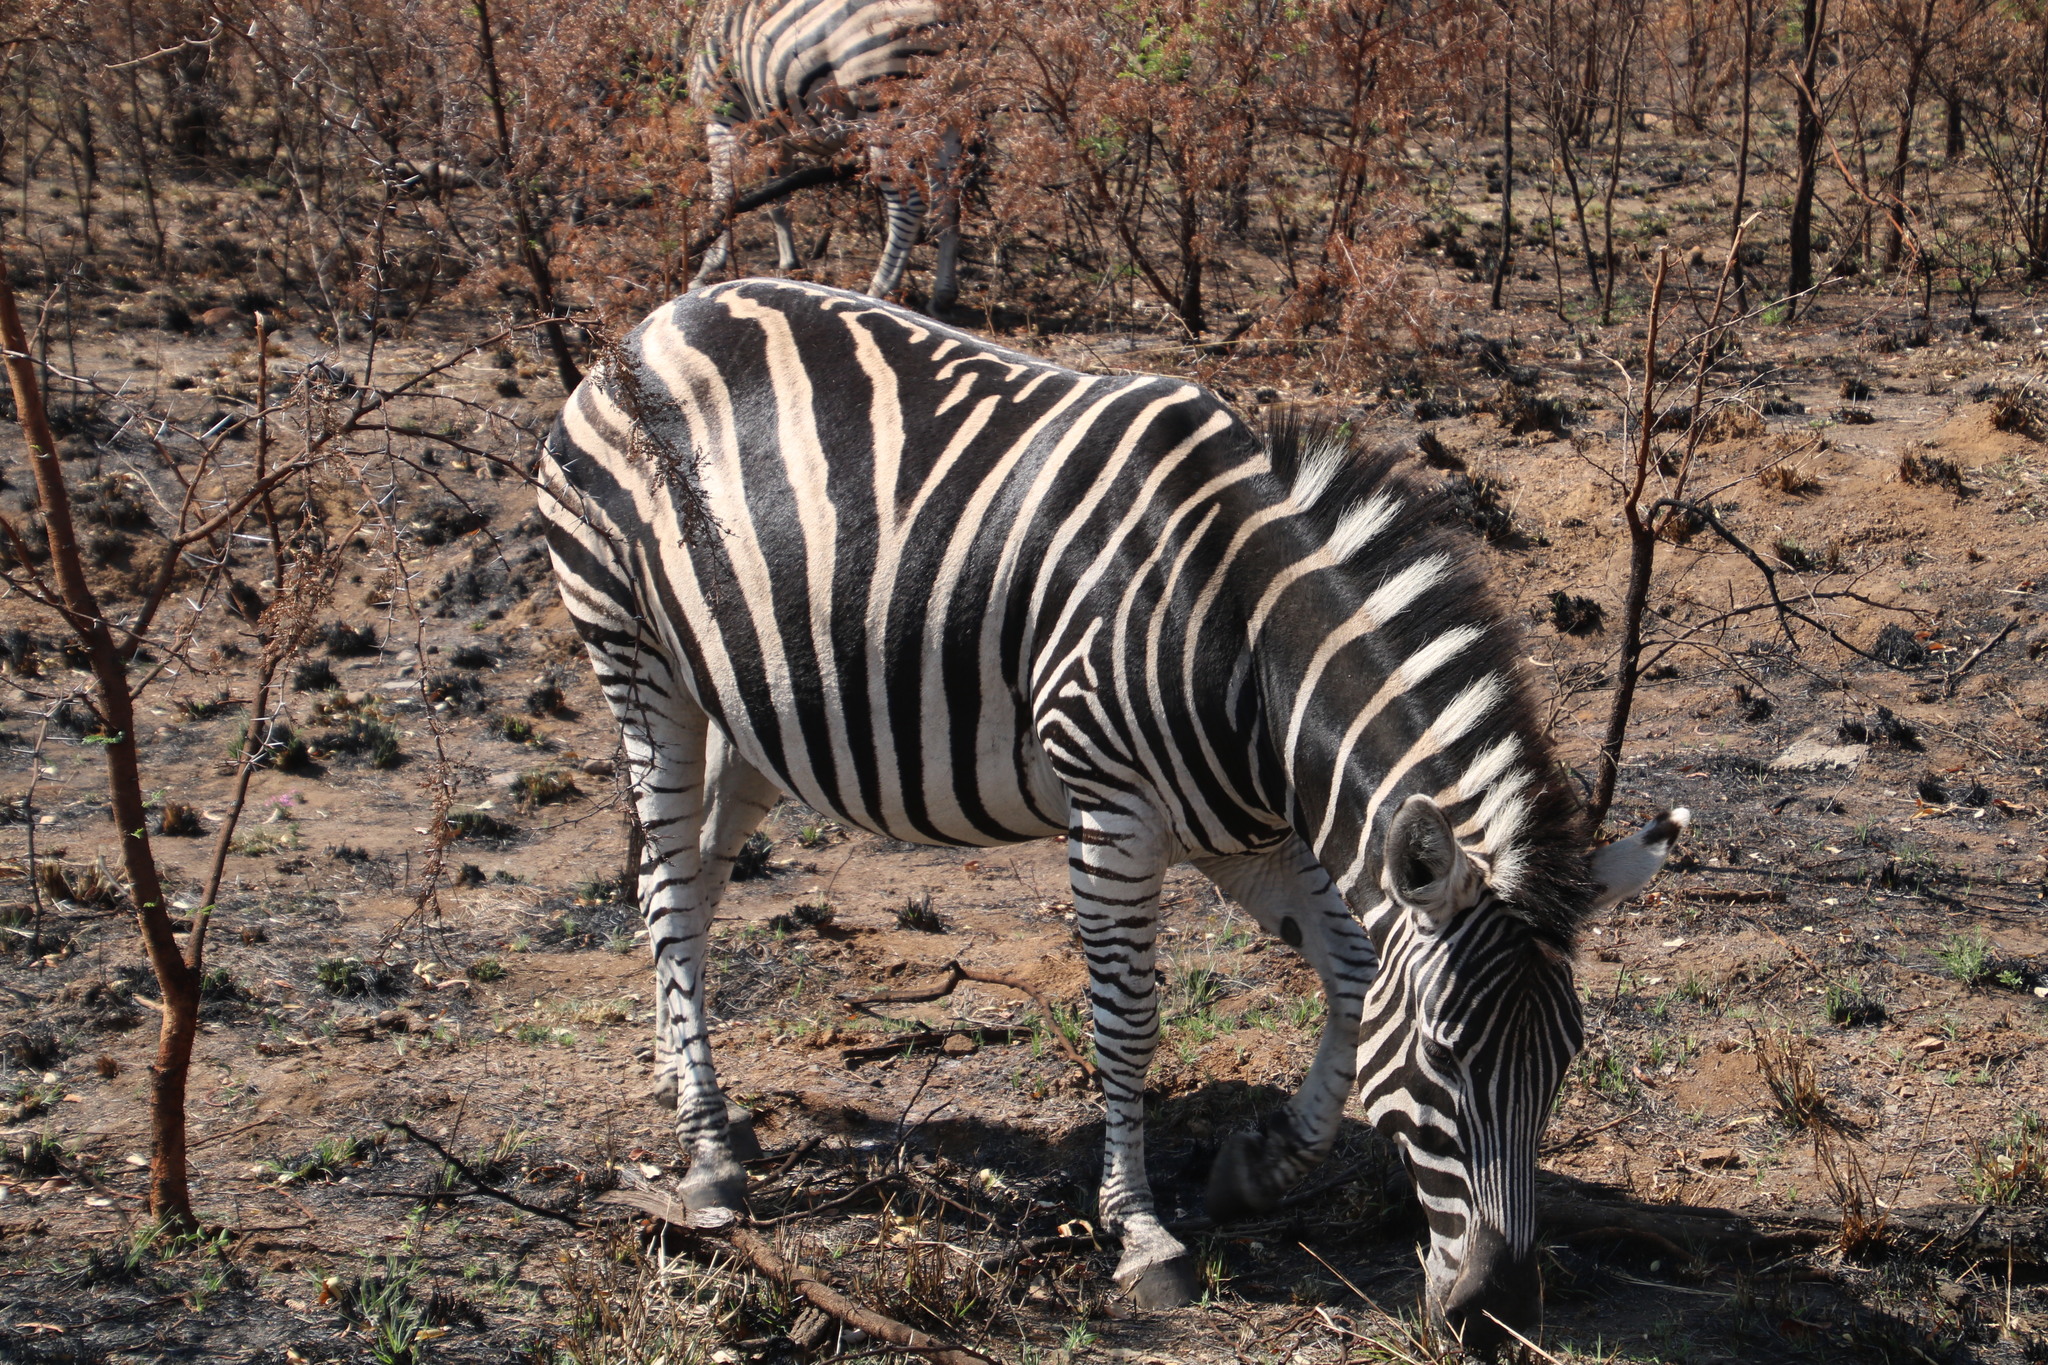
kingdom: Animalia
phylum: Chordata
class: Mammalia
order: Perissodactyla
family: Equidae
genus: Equus
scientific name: Equus quagga
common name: Plains zebra
